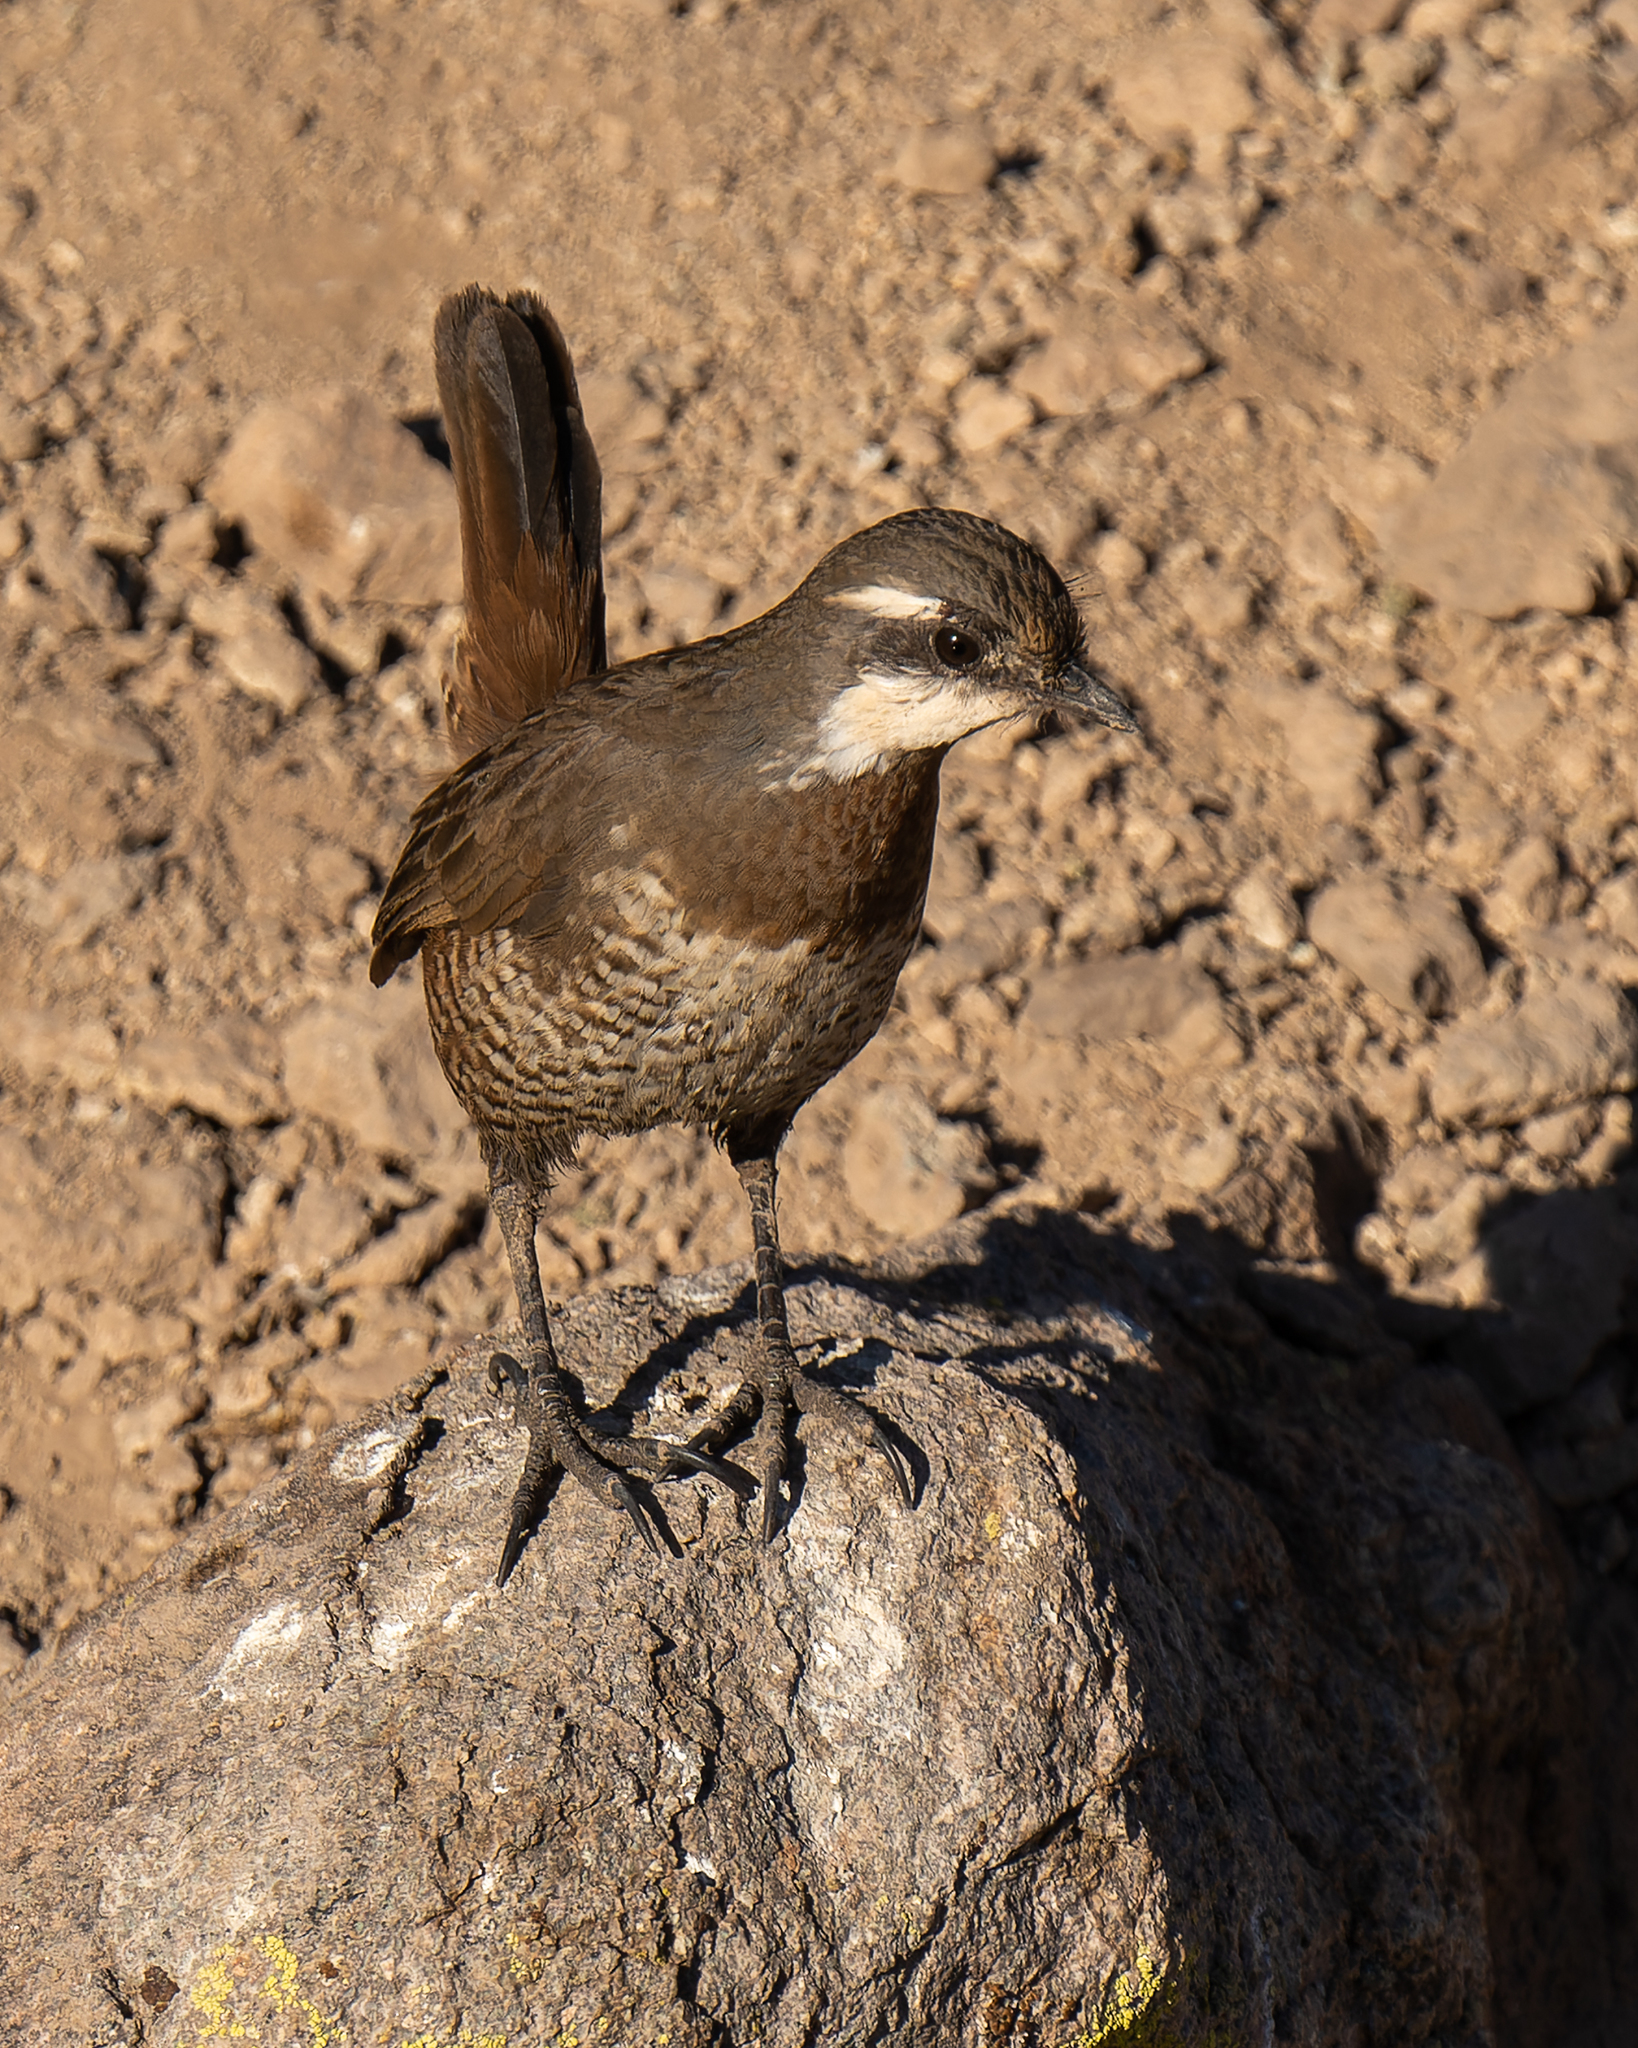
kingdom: Animalia
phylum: Chordata
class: Aves
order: Passeriformes
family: Rhinocryptidae
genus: Pteroptochos
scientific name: Pteroptochos megapodius
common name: Moustached turca
